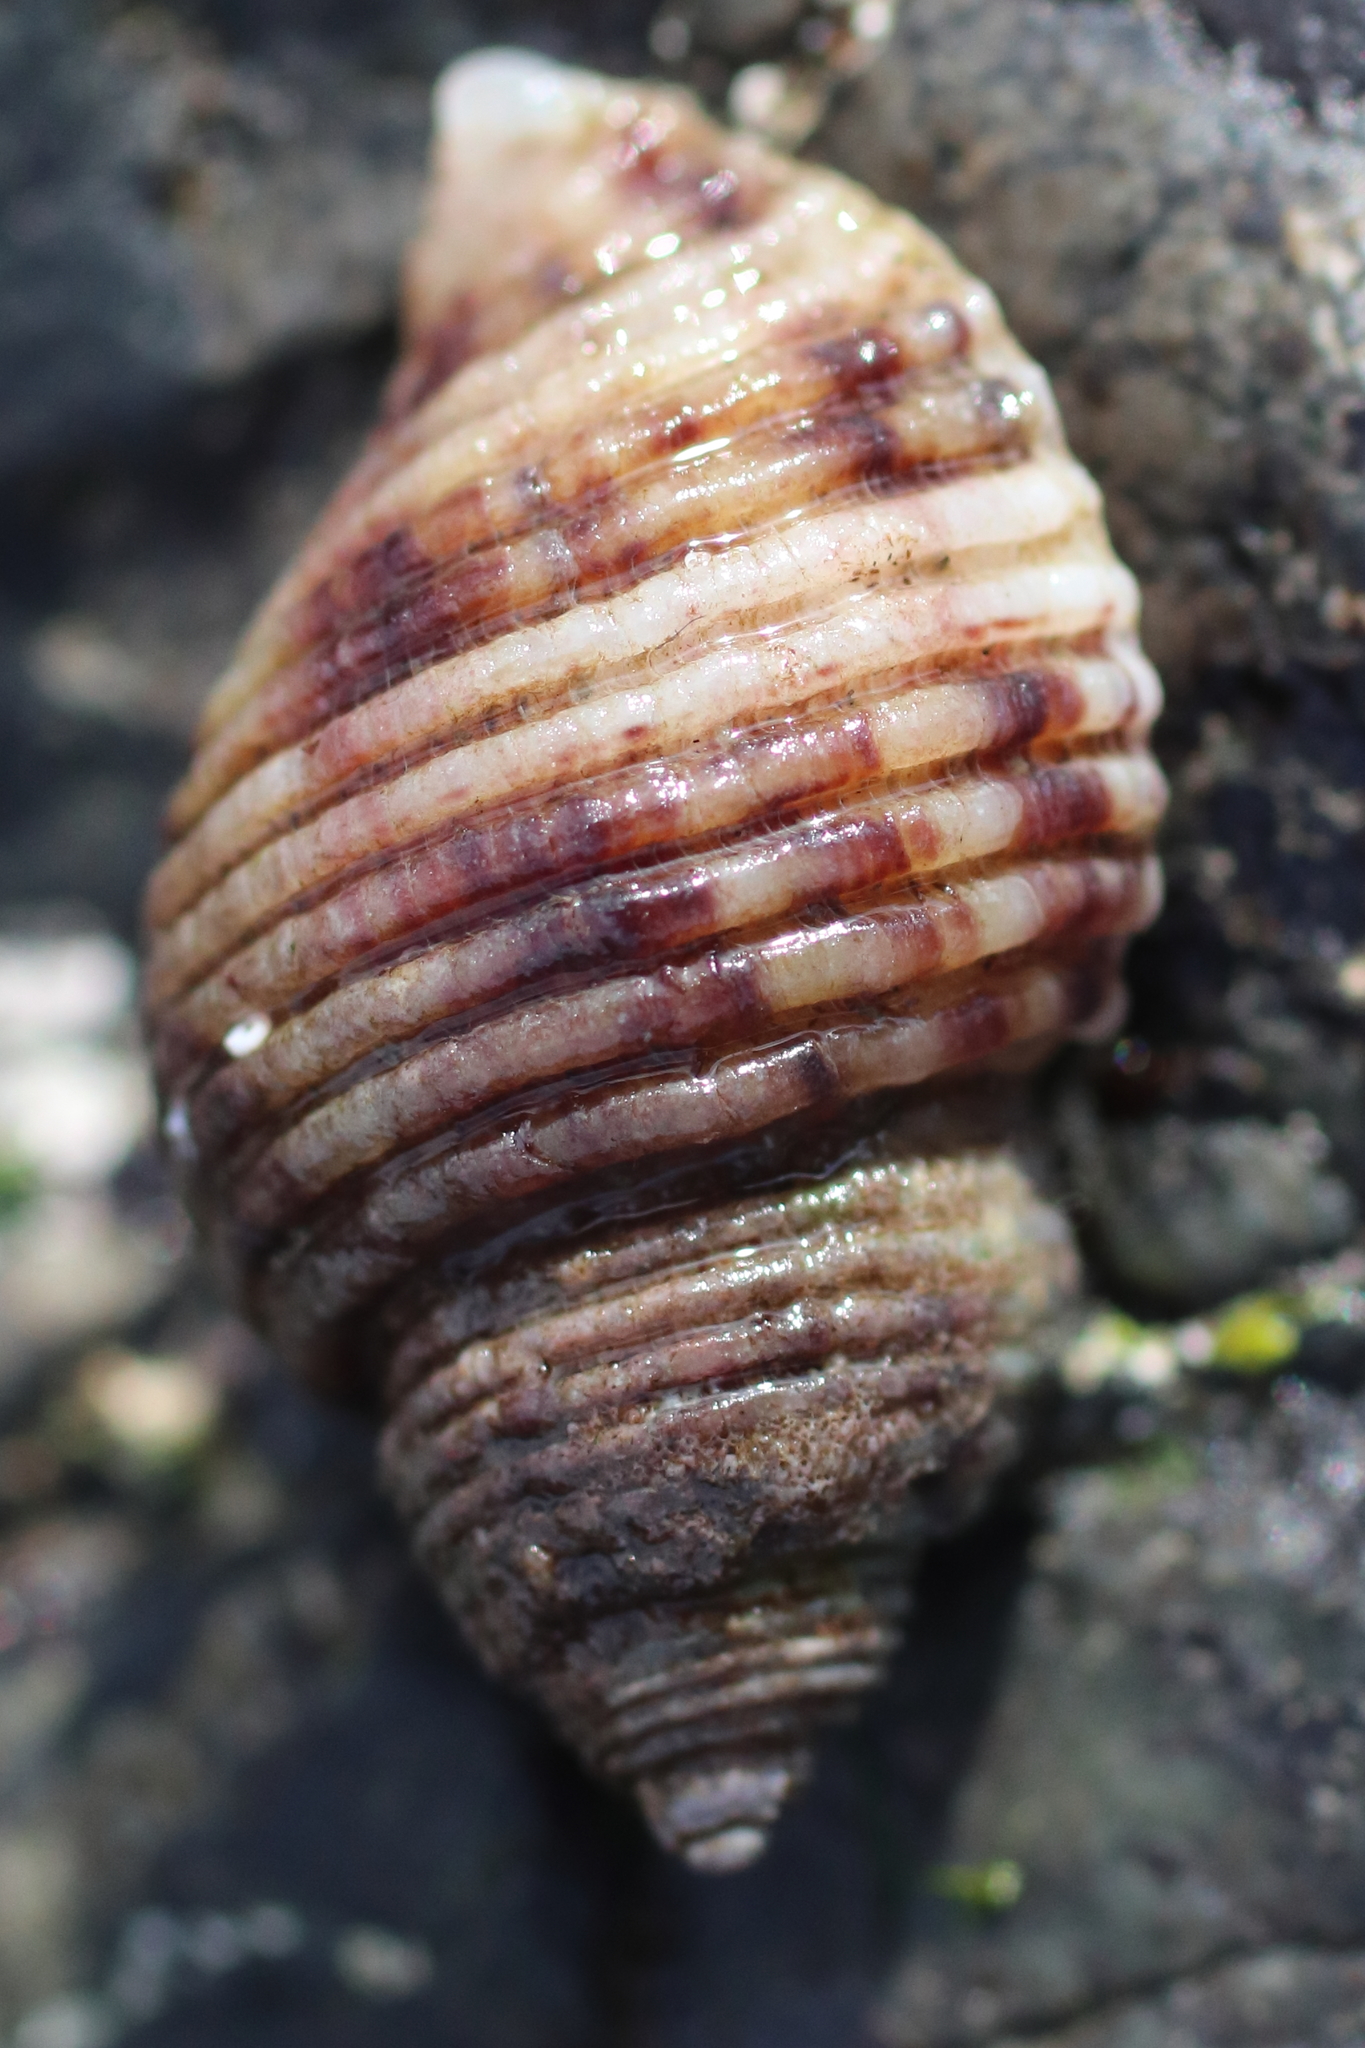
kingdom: Animalia
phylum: Mollusca
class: Gastropoda
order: Neogastropoda
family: Muricidae
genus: Nucella
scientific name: Nucella canaliculata
